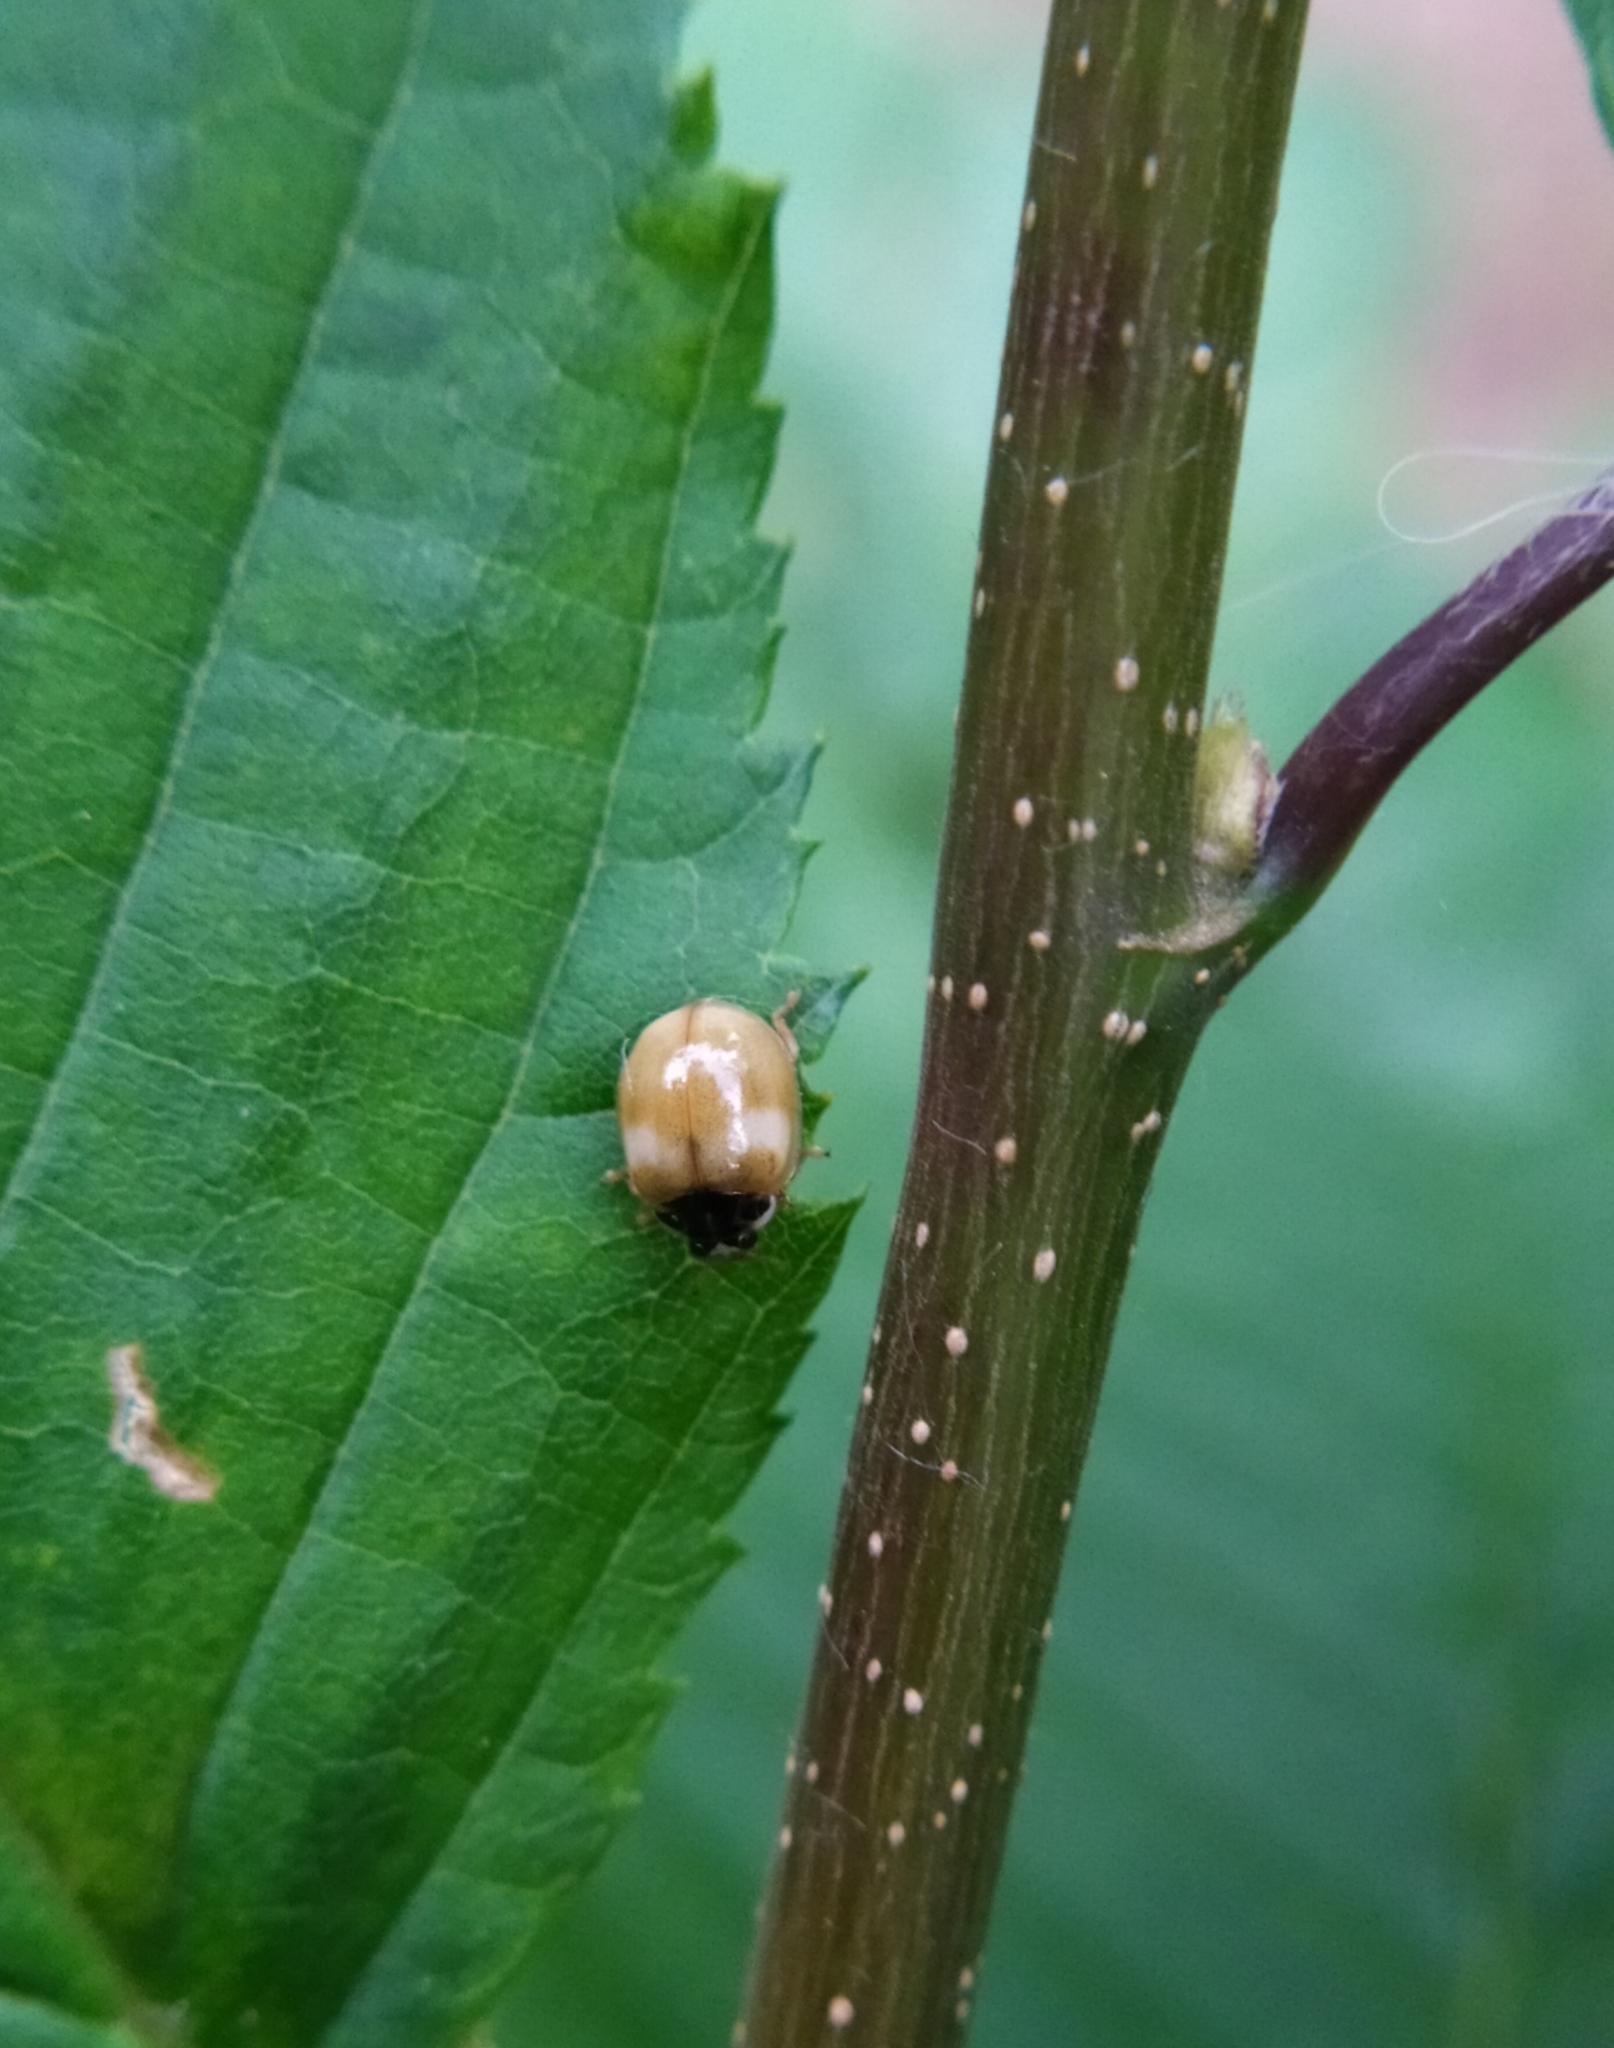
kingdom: Animalia
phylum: Arthropoda
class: Insecta
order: Coleoptera
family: Coccinellidae
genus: Adalia
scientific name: Adalia decempunctata
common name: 10-spot ladybird
